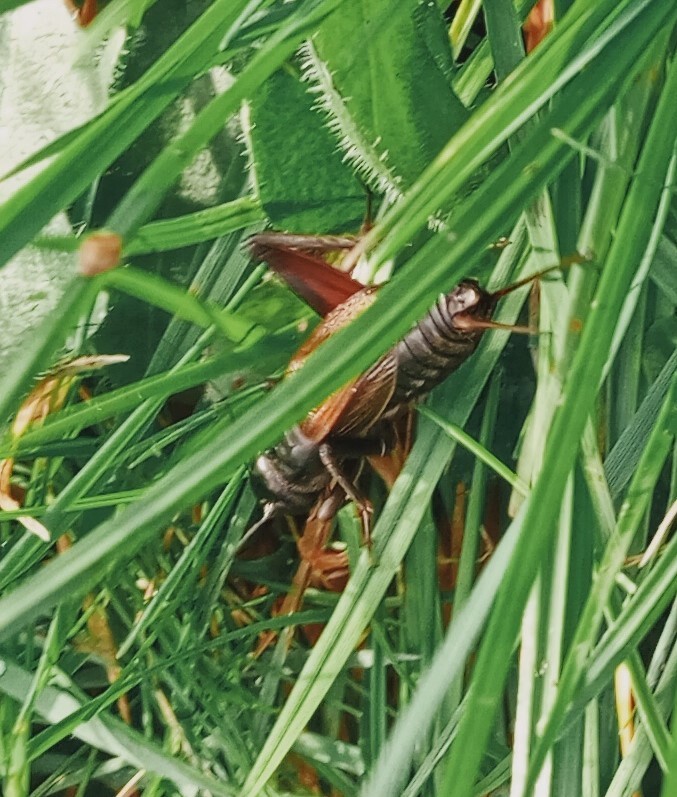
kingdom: Animalia
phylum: Arthropoda
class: Insecta
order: Orthoptera
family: Gryllidae
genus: Teleogryllus
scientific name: Teleogryllus commodus
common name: Black field cricket
